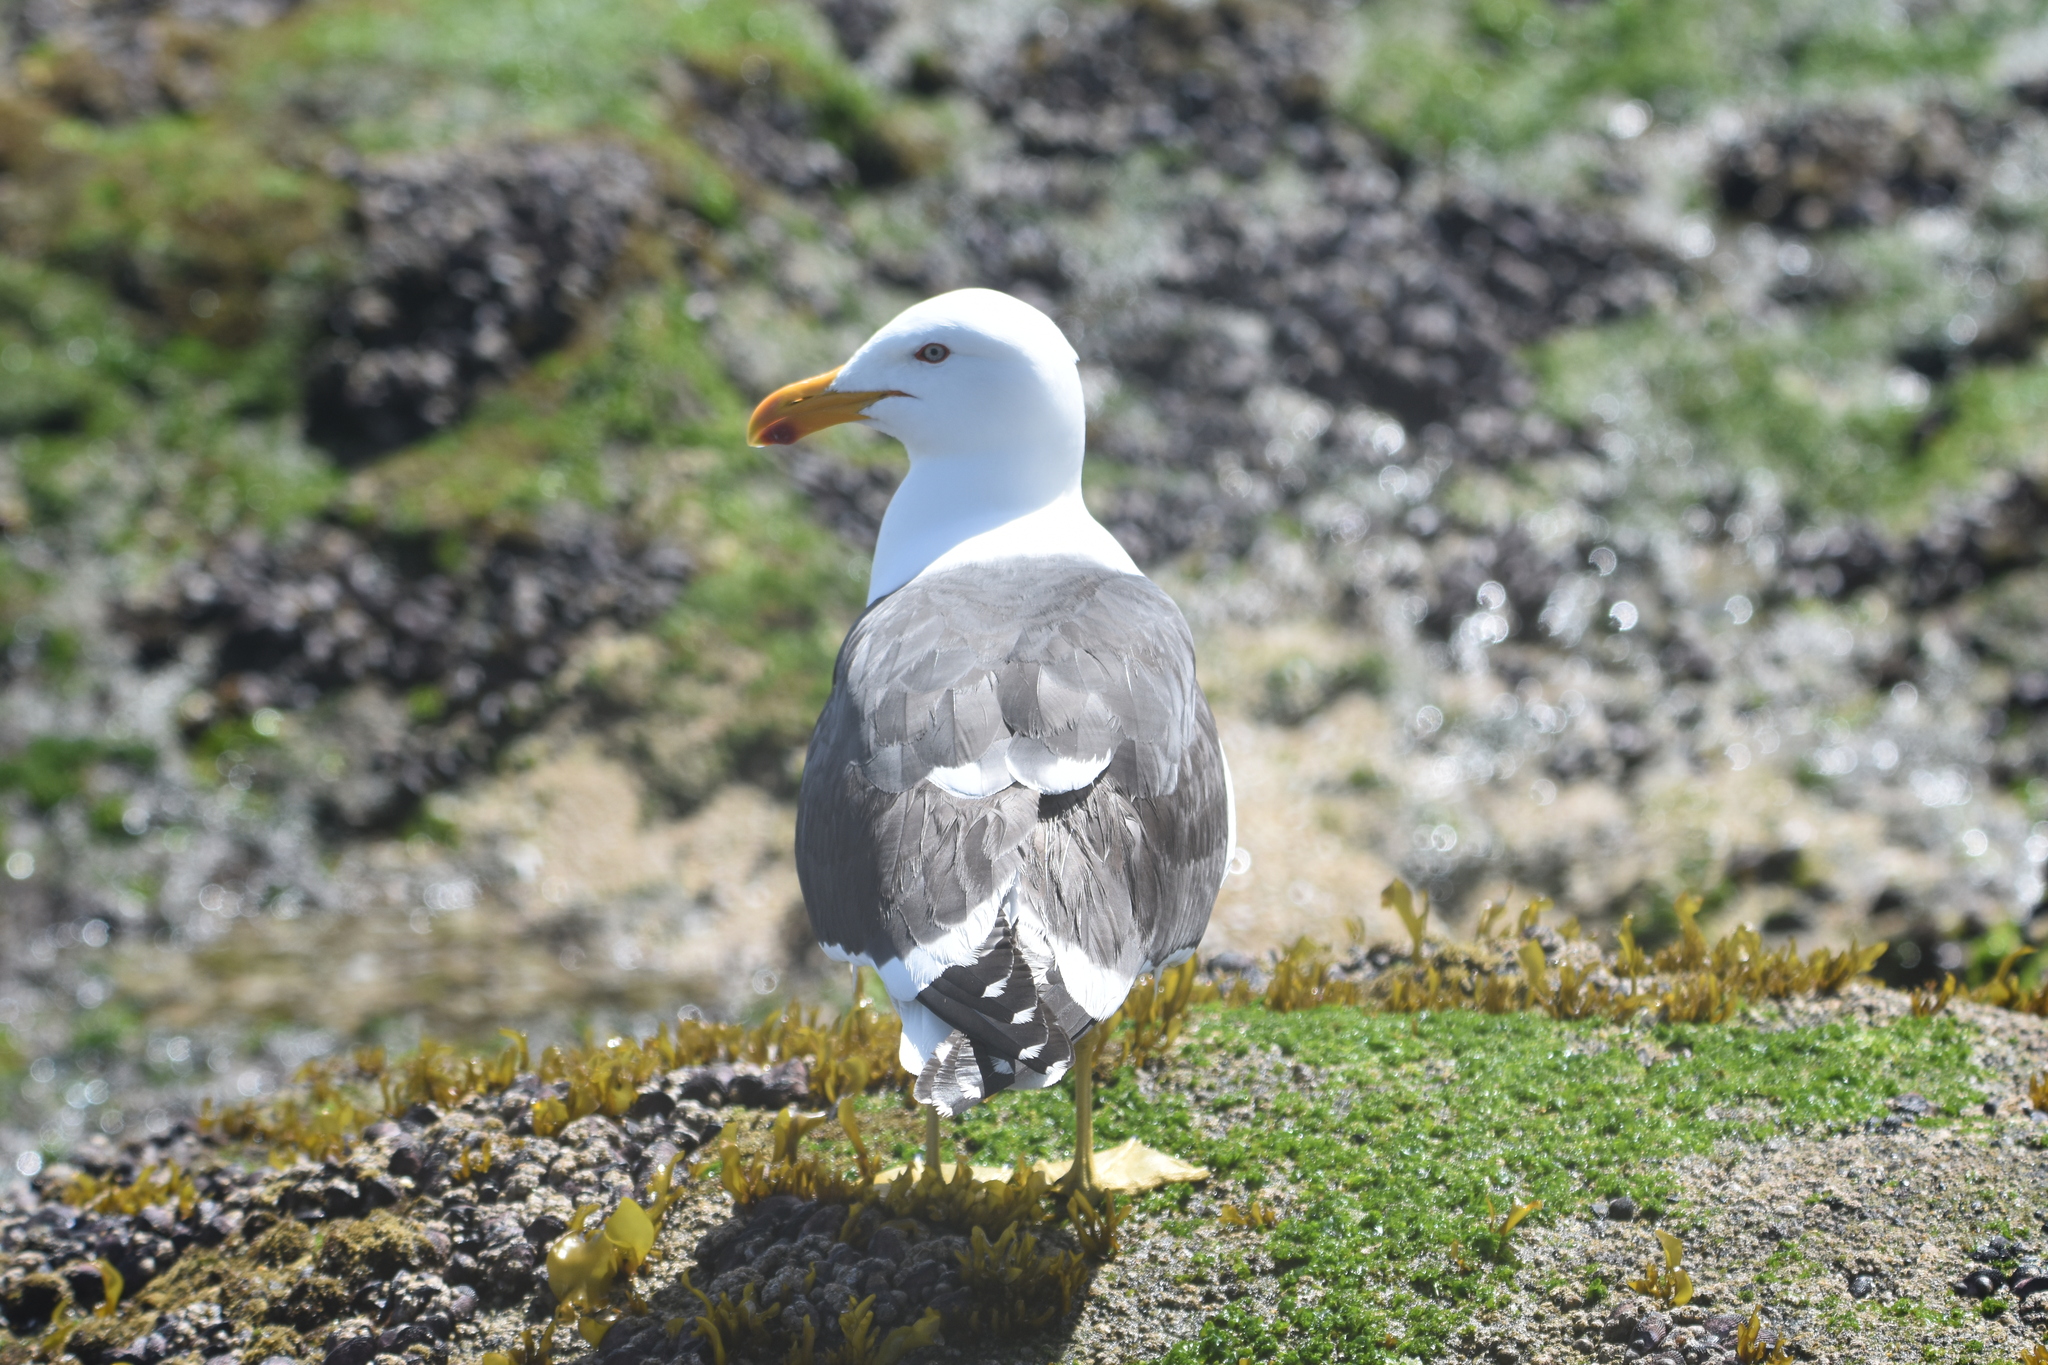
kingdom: Animalia
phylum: Chordata
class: Aves
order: Charadriiformes
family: Laridae
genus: Larus
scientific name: Larus dominicanus
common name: Kelp gull
